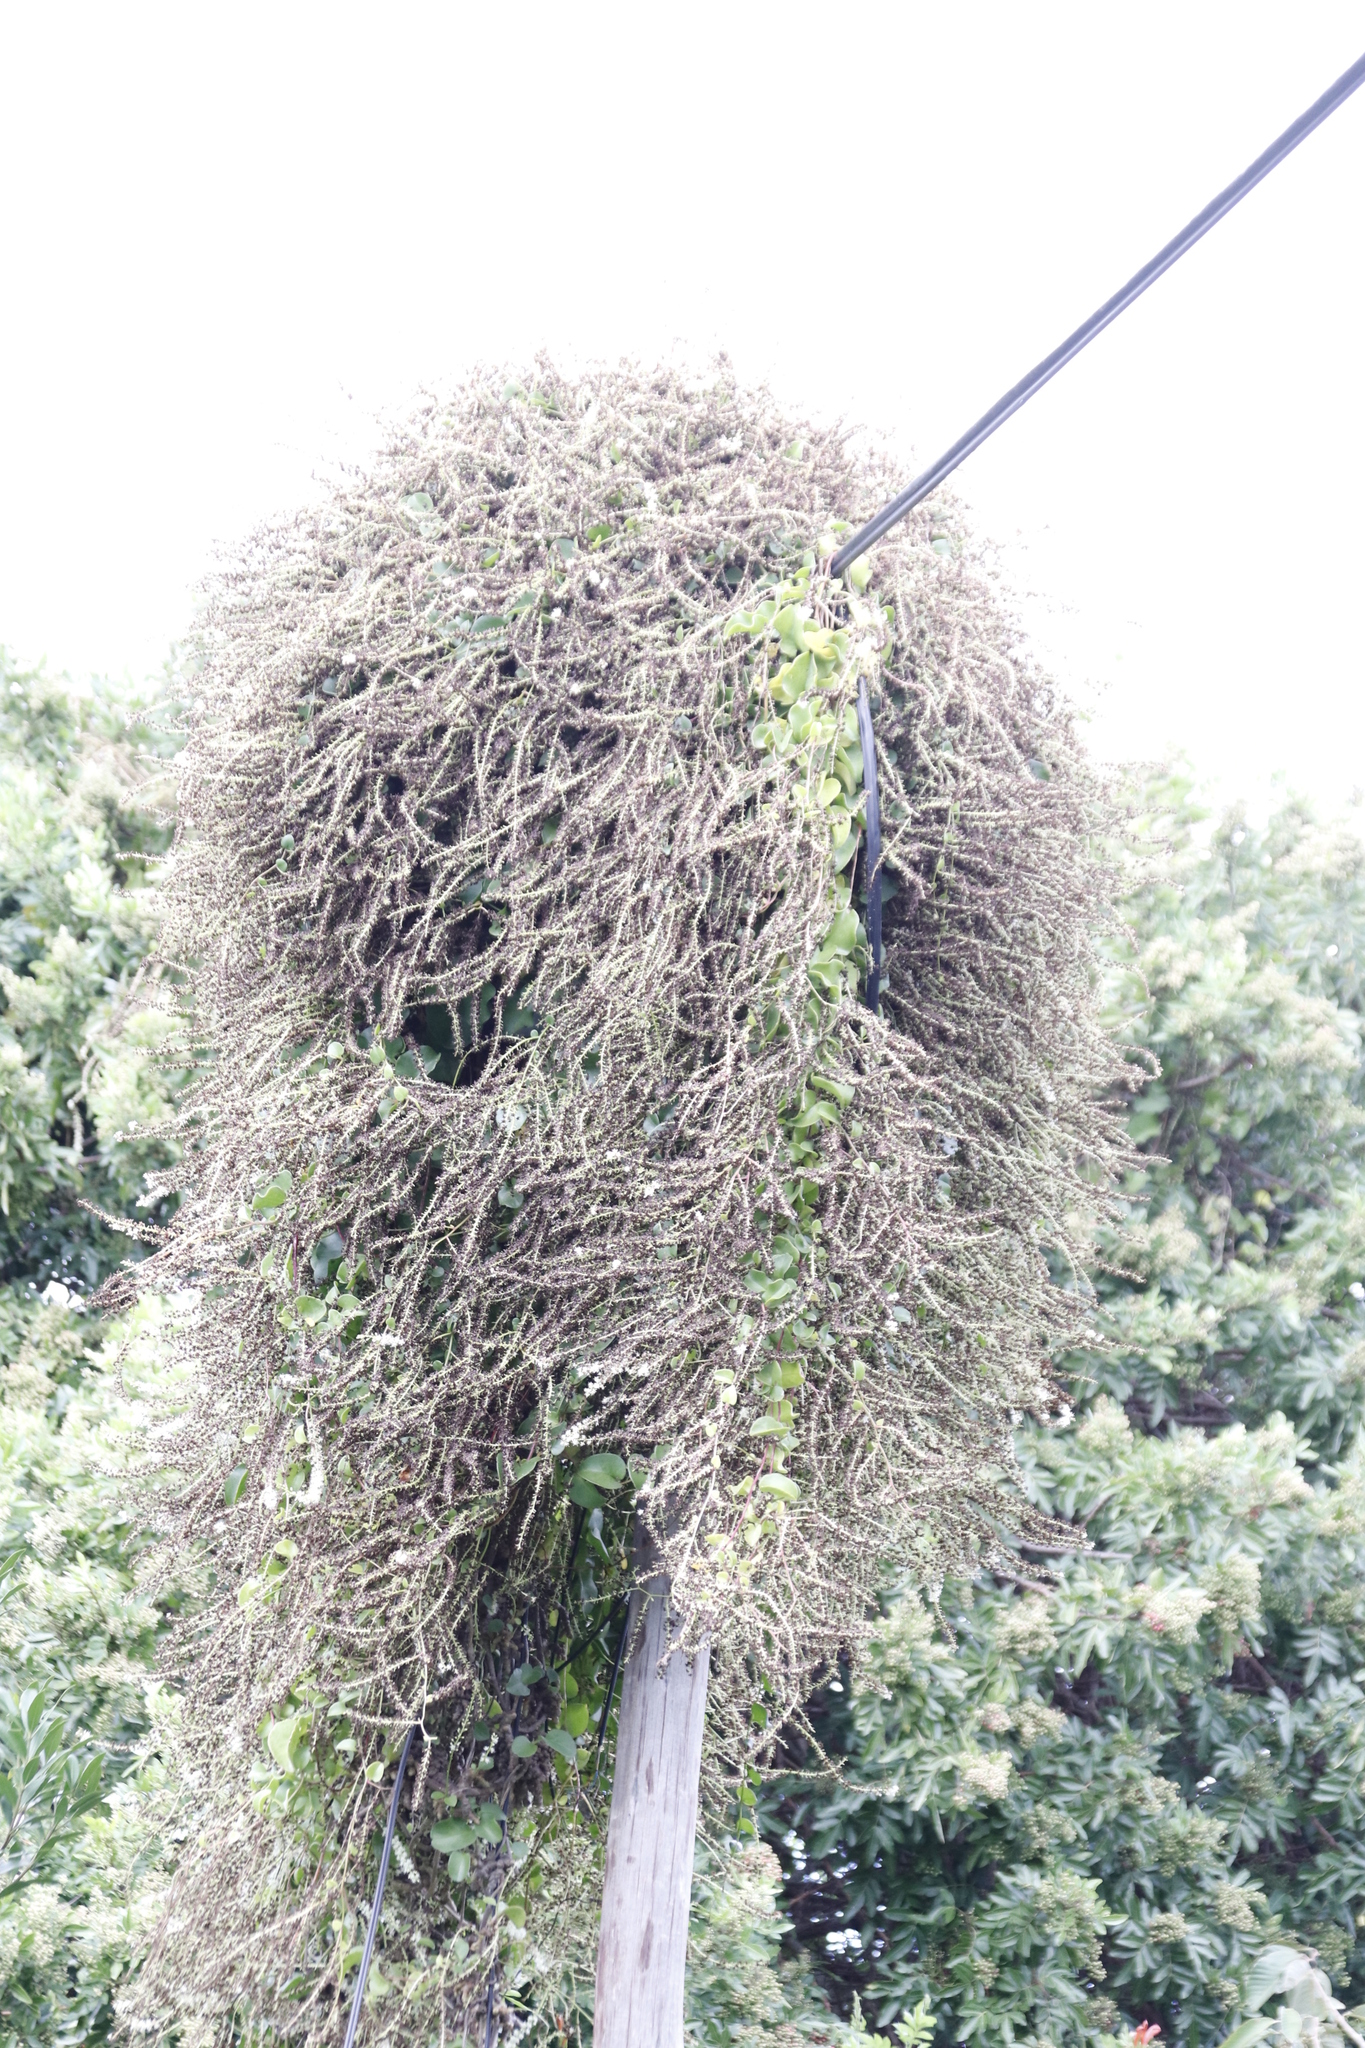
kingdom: Plantae
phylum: Tracheophyta
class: Magnoliopsida
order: Caryophyllales
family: Basellaceae
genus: Anredera
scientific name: Anredera cordifolia
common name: Heartleaf madeiravine
